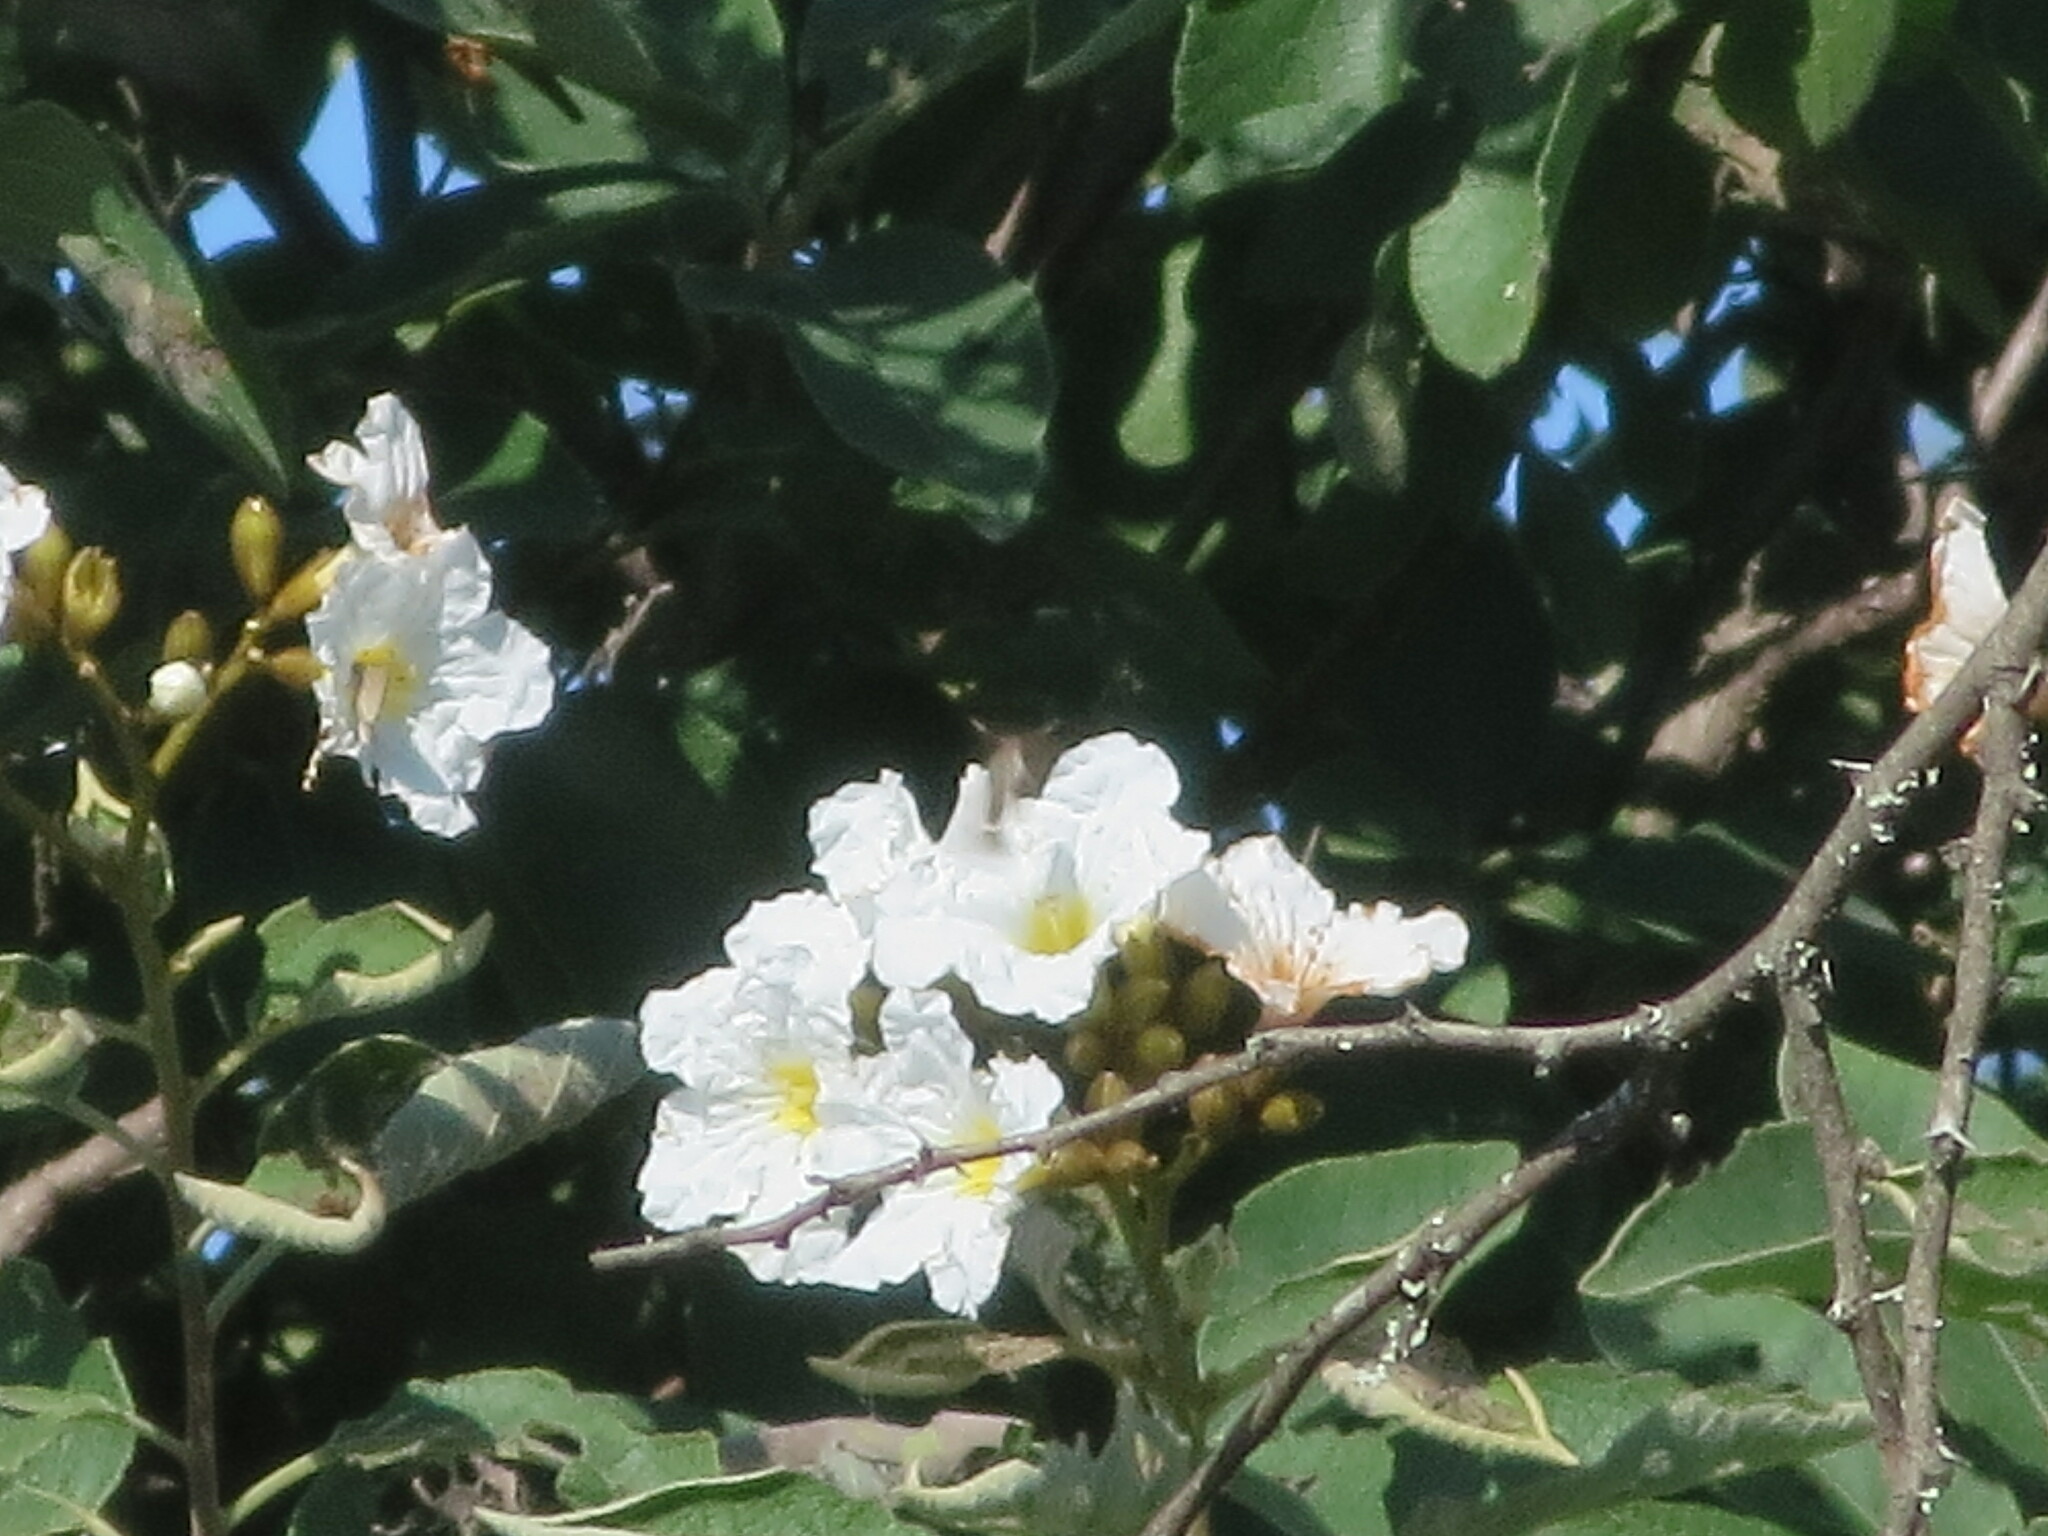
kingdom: Plantae
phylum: Tracheophyta
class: Magnoliopsida
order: Boraginales
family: Cordiaceae
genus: Cordia
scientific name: Cordia boissieri
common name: Mexican-olive
